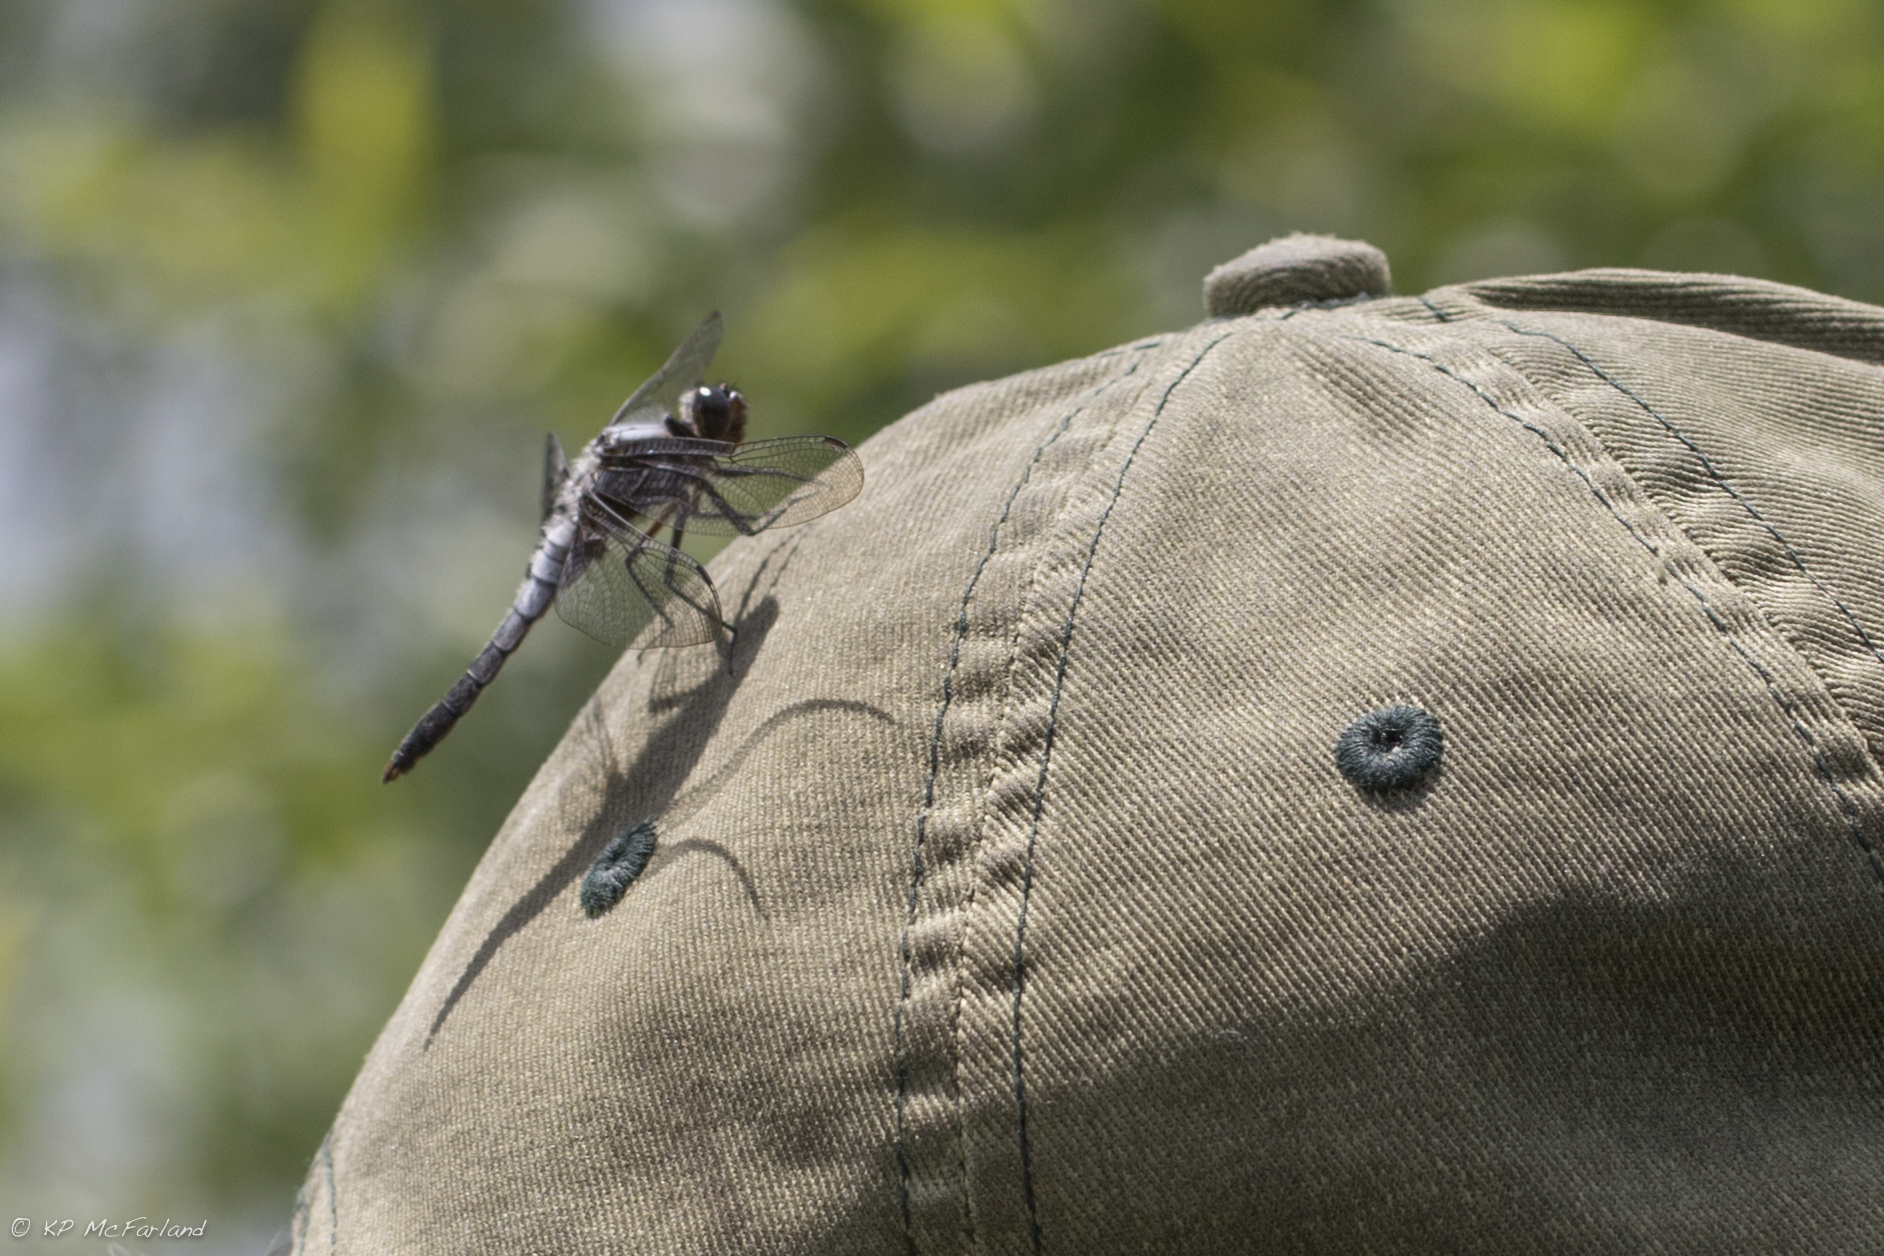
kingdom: Animalia
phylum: Arthropoda
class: Insecta
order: Odonata
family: Libellulidae
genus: Ladona
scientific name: Ladona julia
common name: Chalk-fronted corporal
